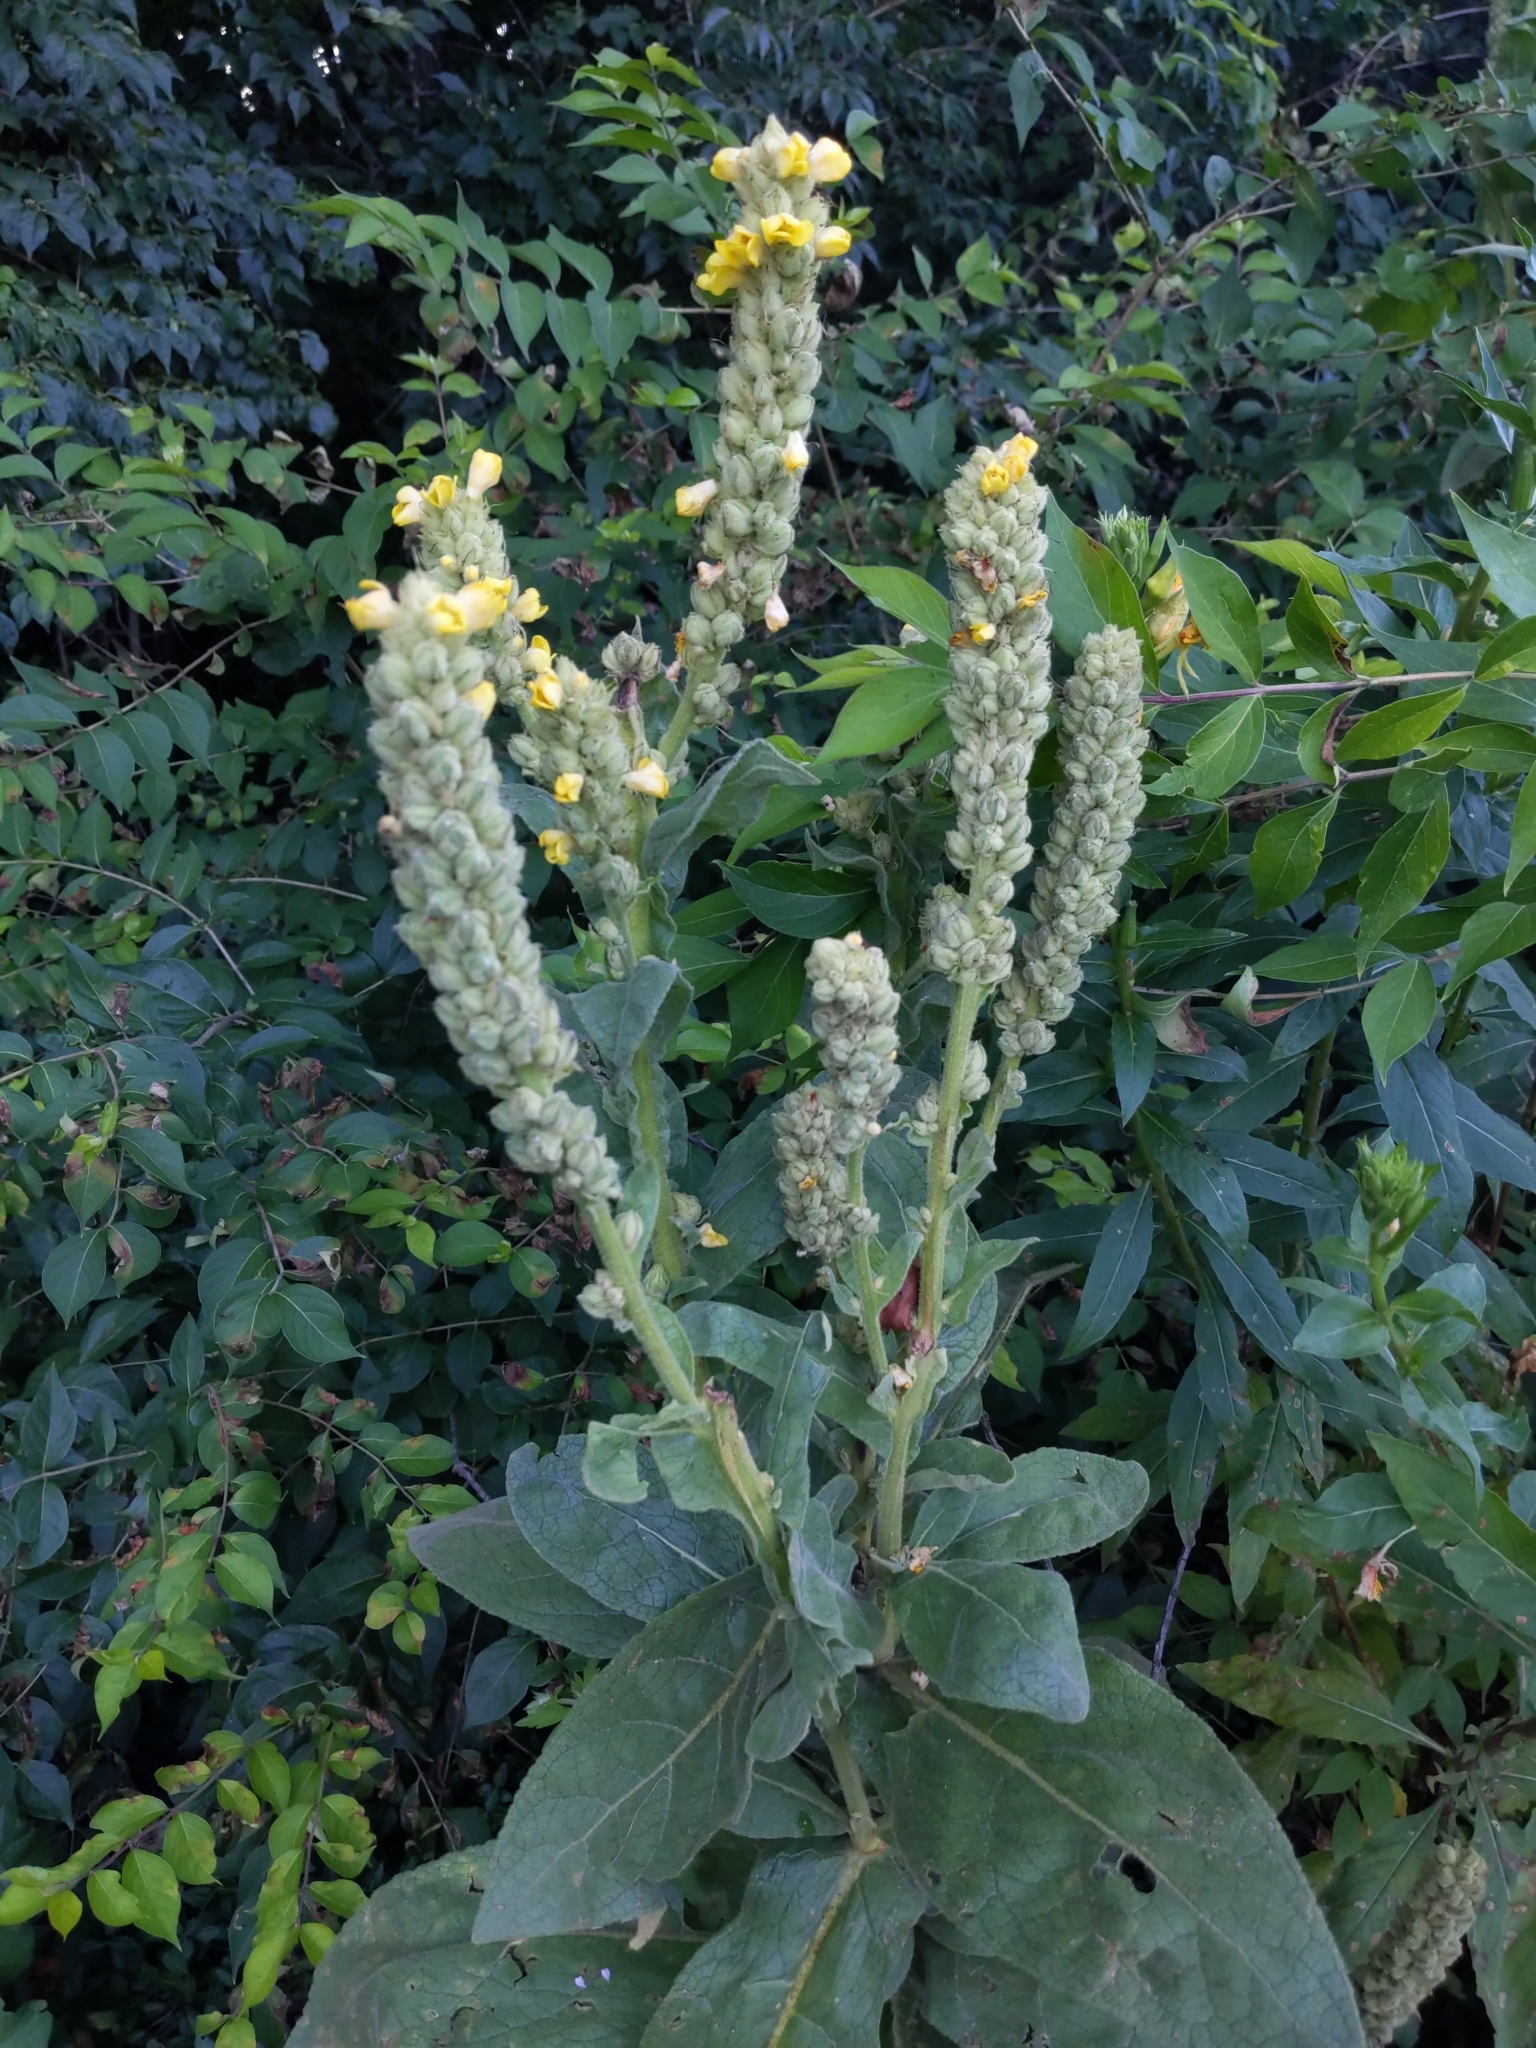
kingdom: Plantae
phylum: Tracheophyta
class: Magnoliopsida
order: Lamiales
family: Scrophulariaceae
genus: Verbascum
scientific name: Verbascum thapsus
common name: Common mullein
